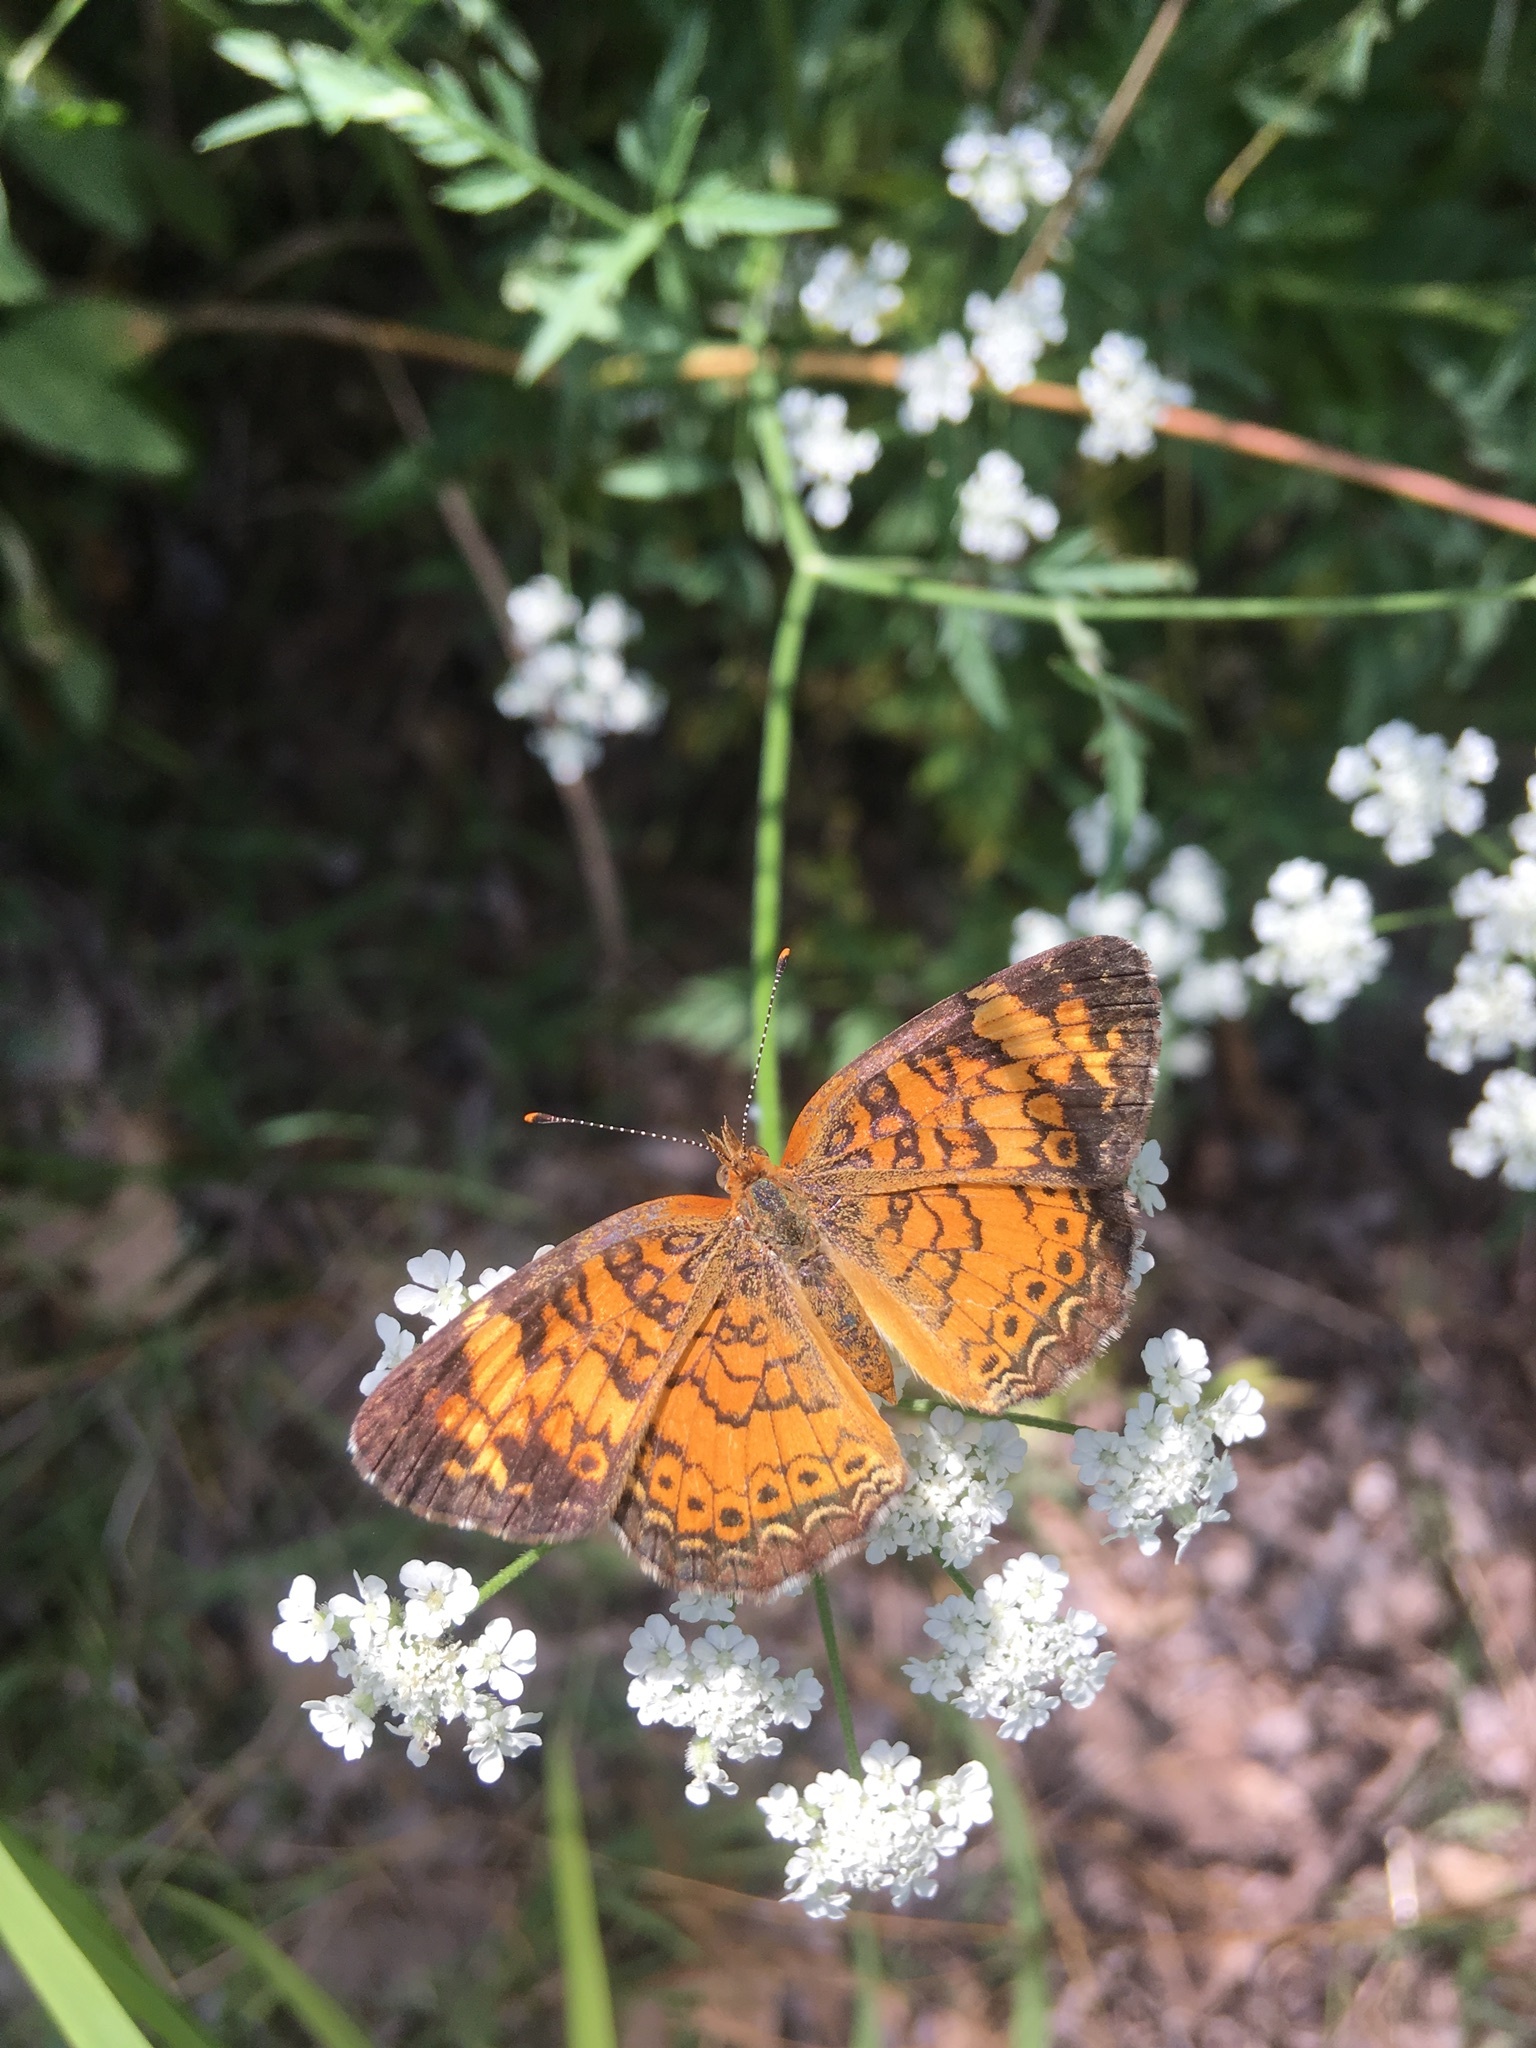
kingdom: Animalia
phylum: Arthropoda
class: Insecta
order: Lepidoptera
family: Nymphalidae
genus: Phyciodes
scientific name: Phyciodes tharos
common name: Pearl crescent
